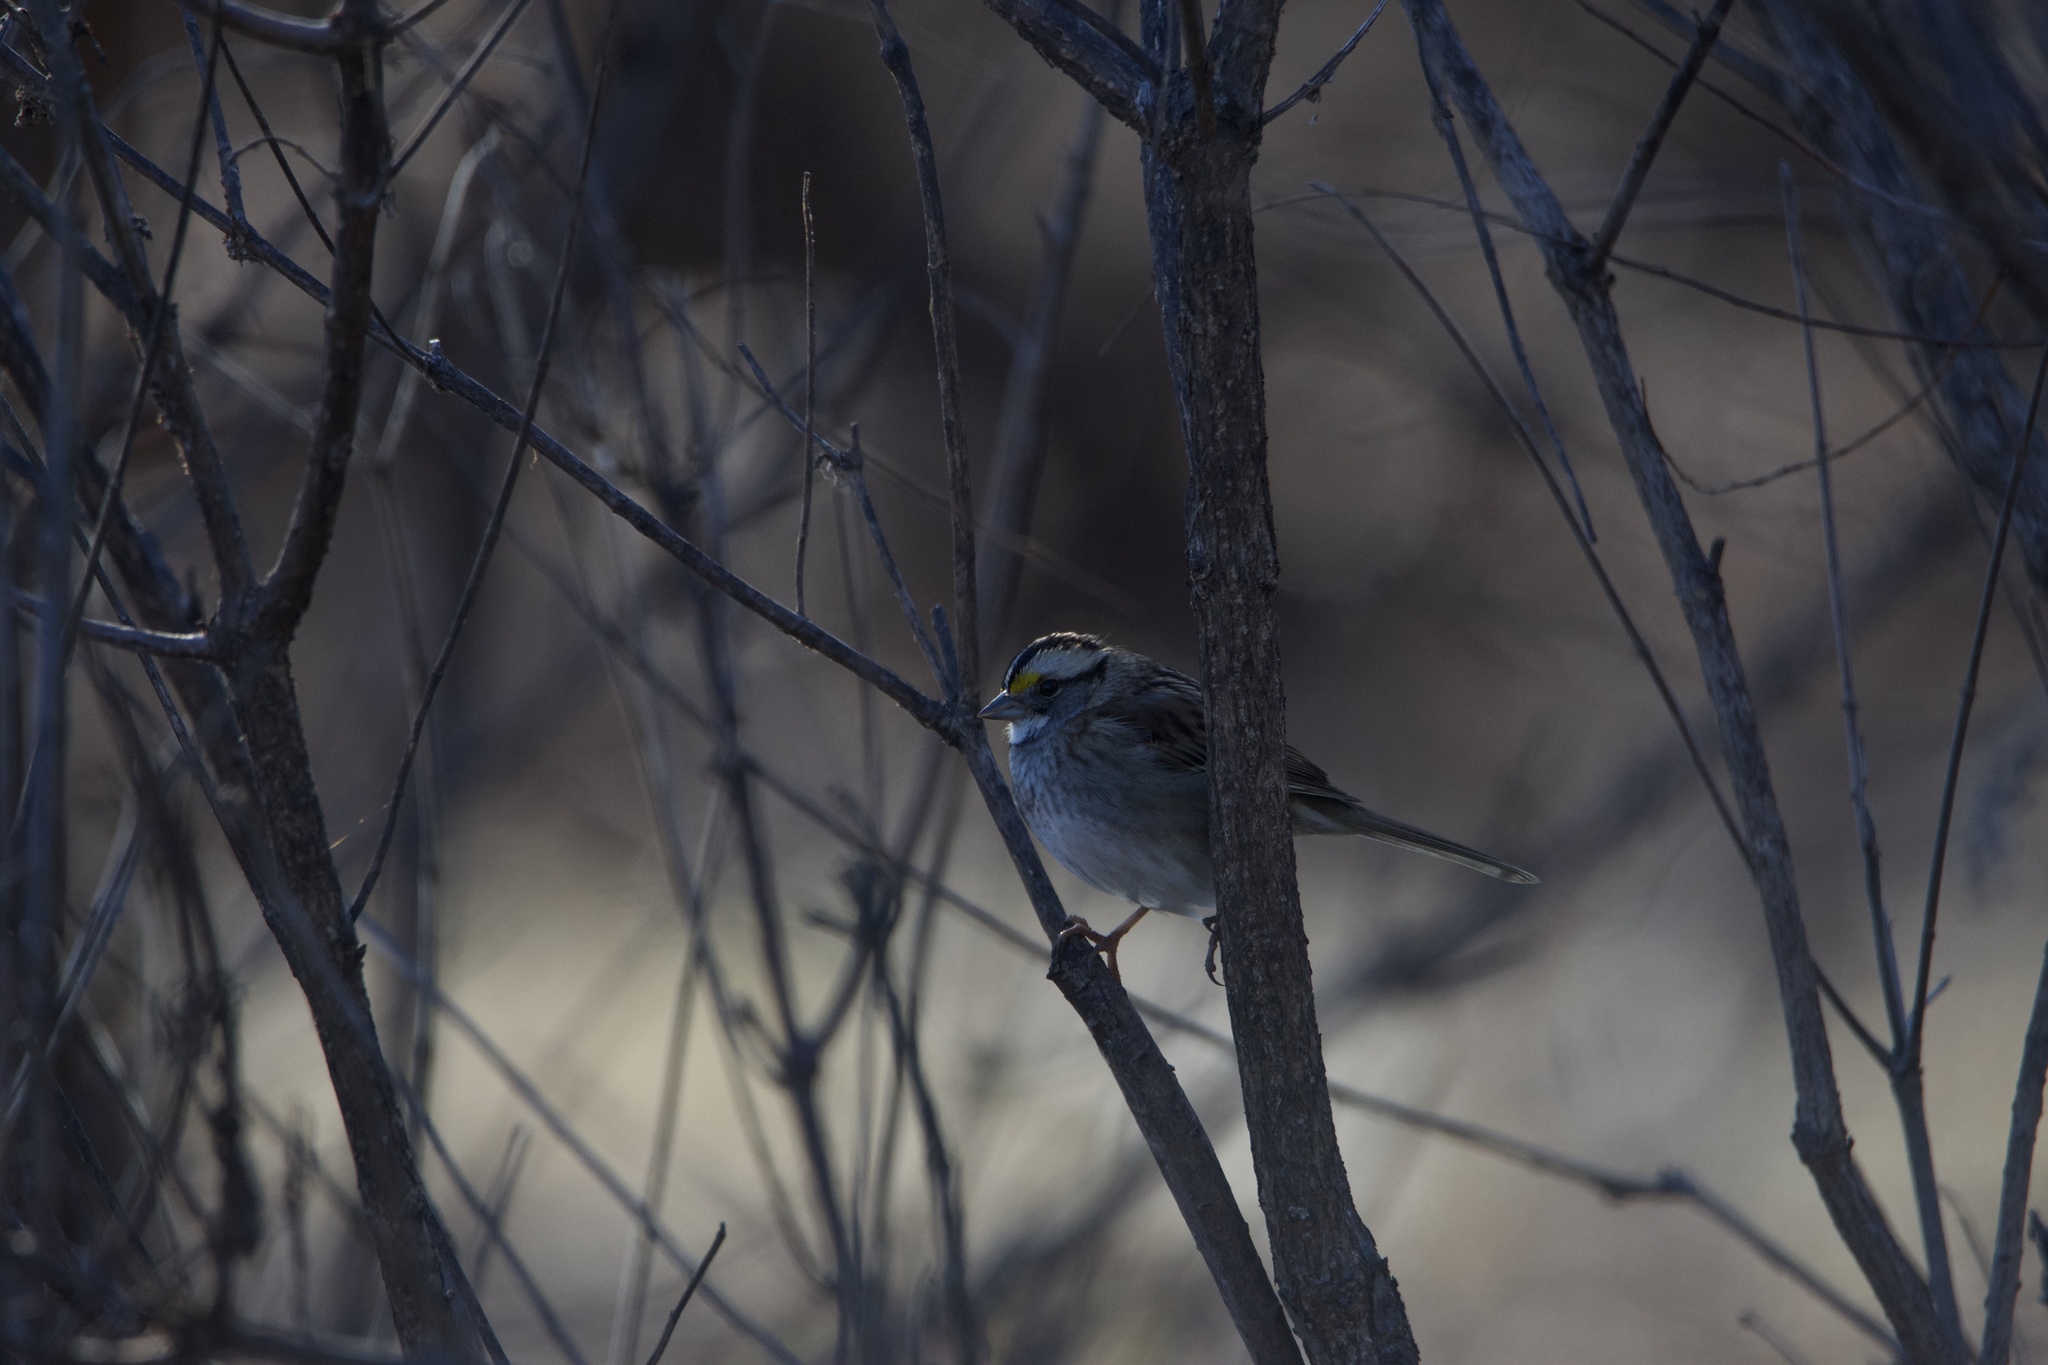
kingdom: Animalia
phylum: Chordata
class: Aves
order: Passeriformes
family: Passerellidae
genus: Zonotrichia
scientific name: Zonotrichia albicollis
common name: White-throated sparrow
